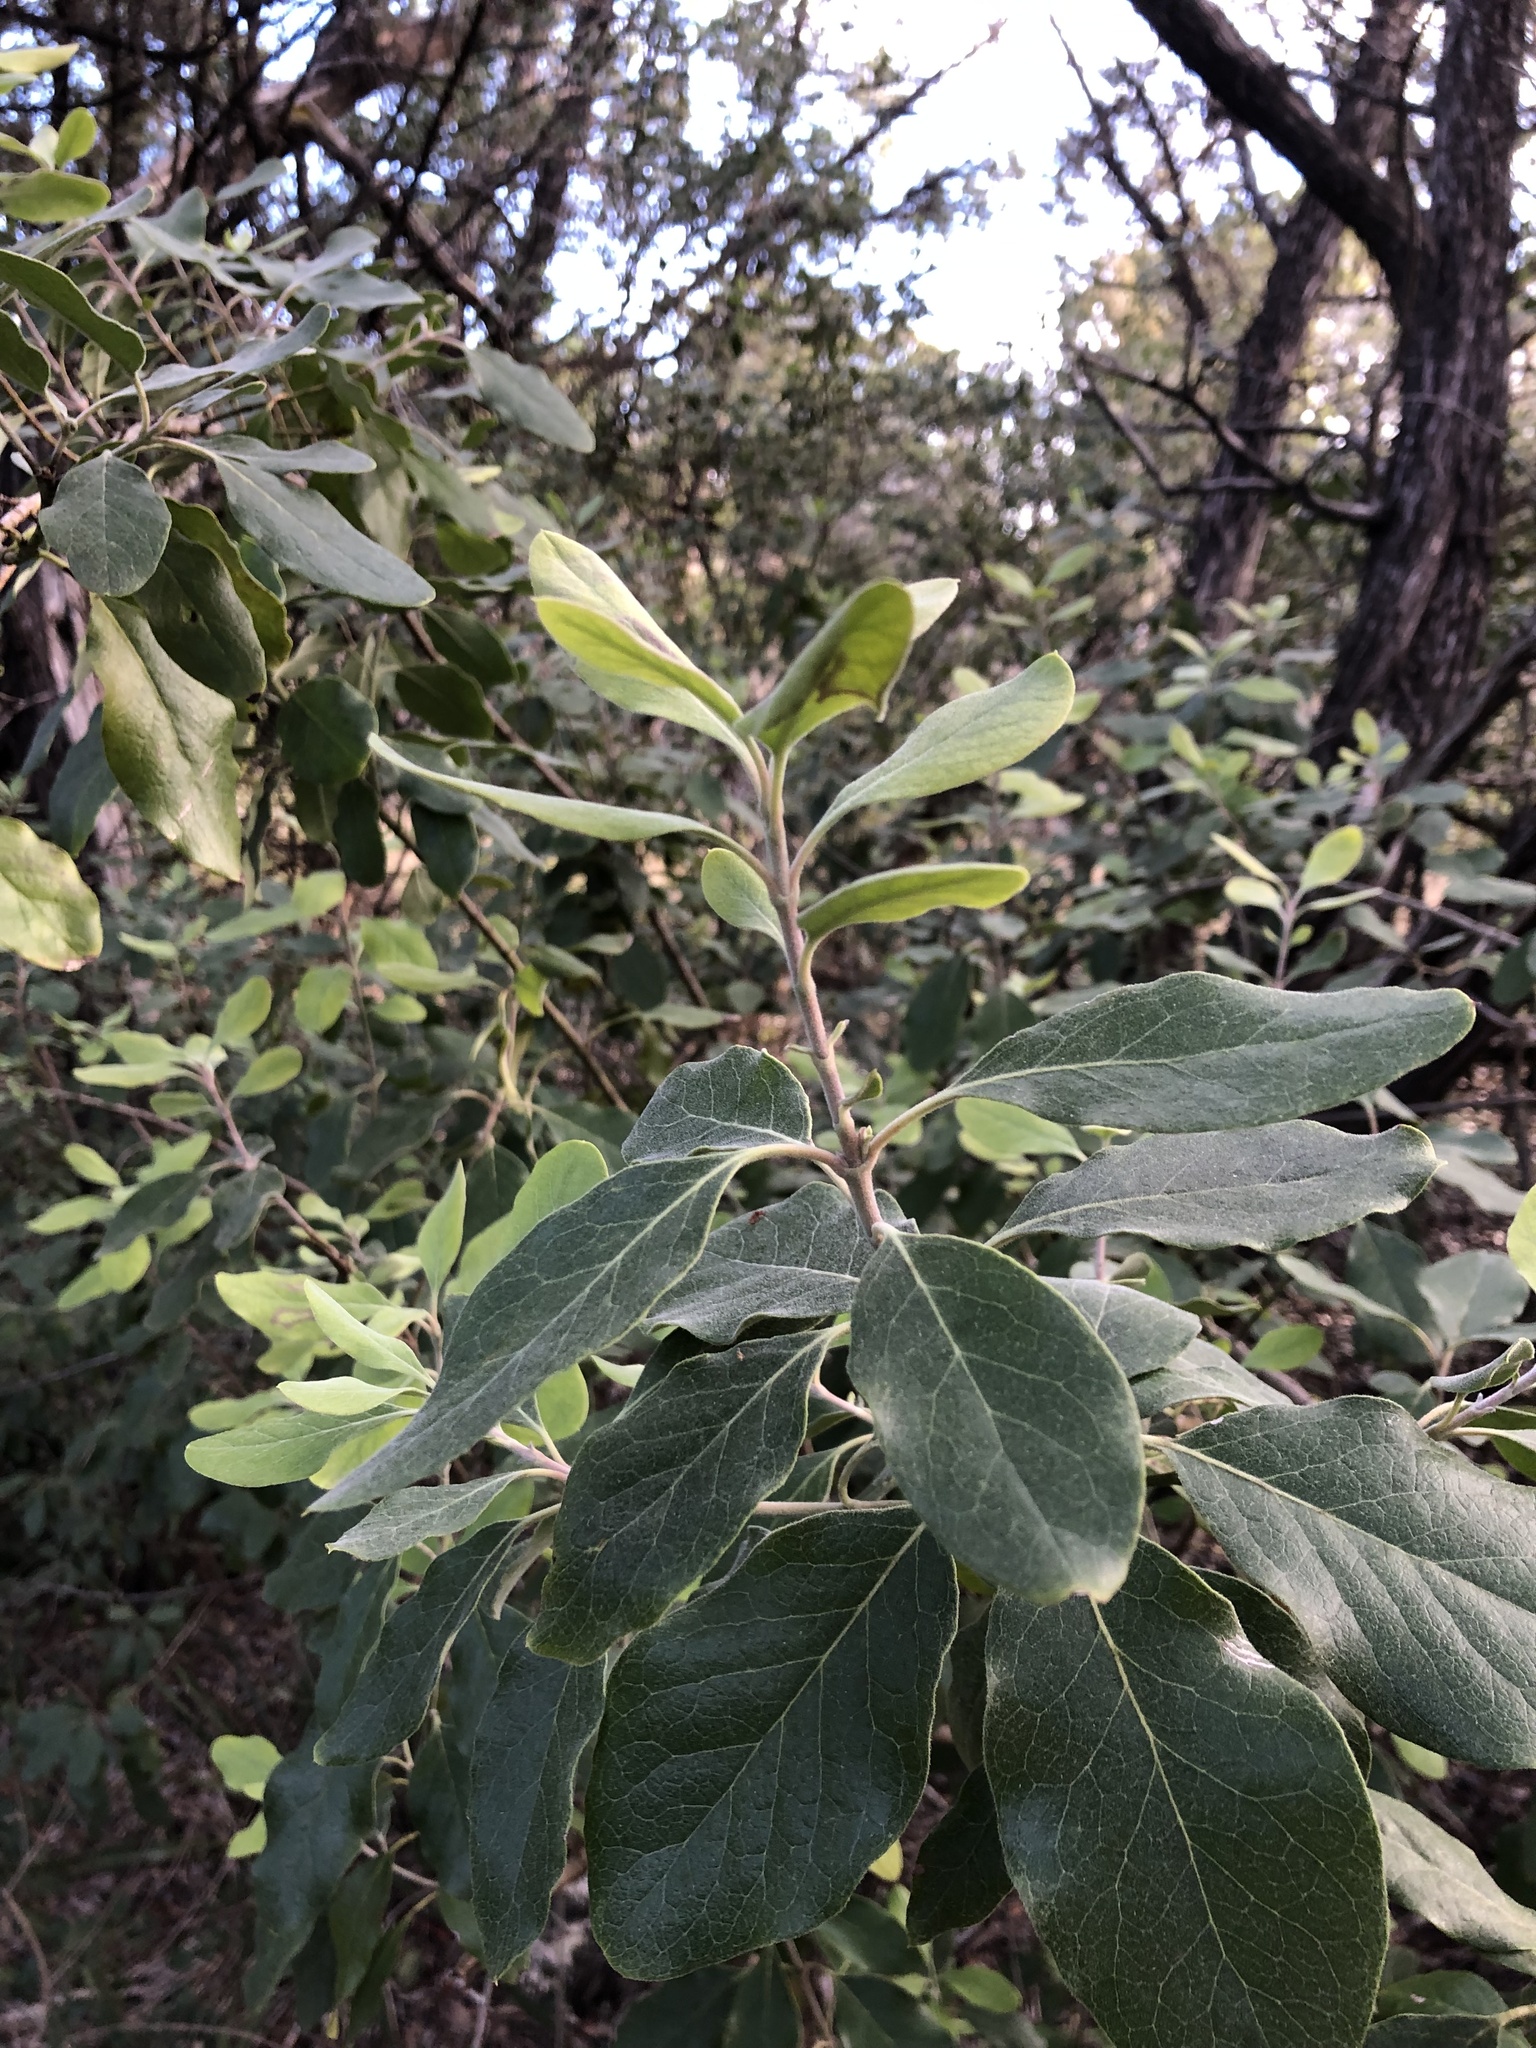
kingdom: Plantae
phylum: Tracheophyta
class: Magnoliopsida
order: Garryales
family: Garryaceae
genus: Garrya
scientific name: Garrya lindheimeri
